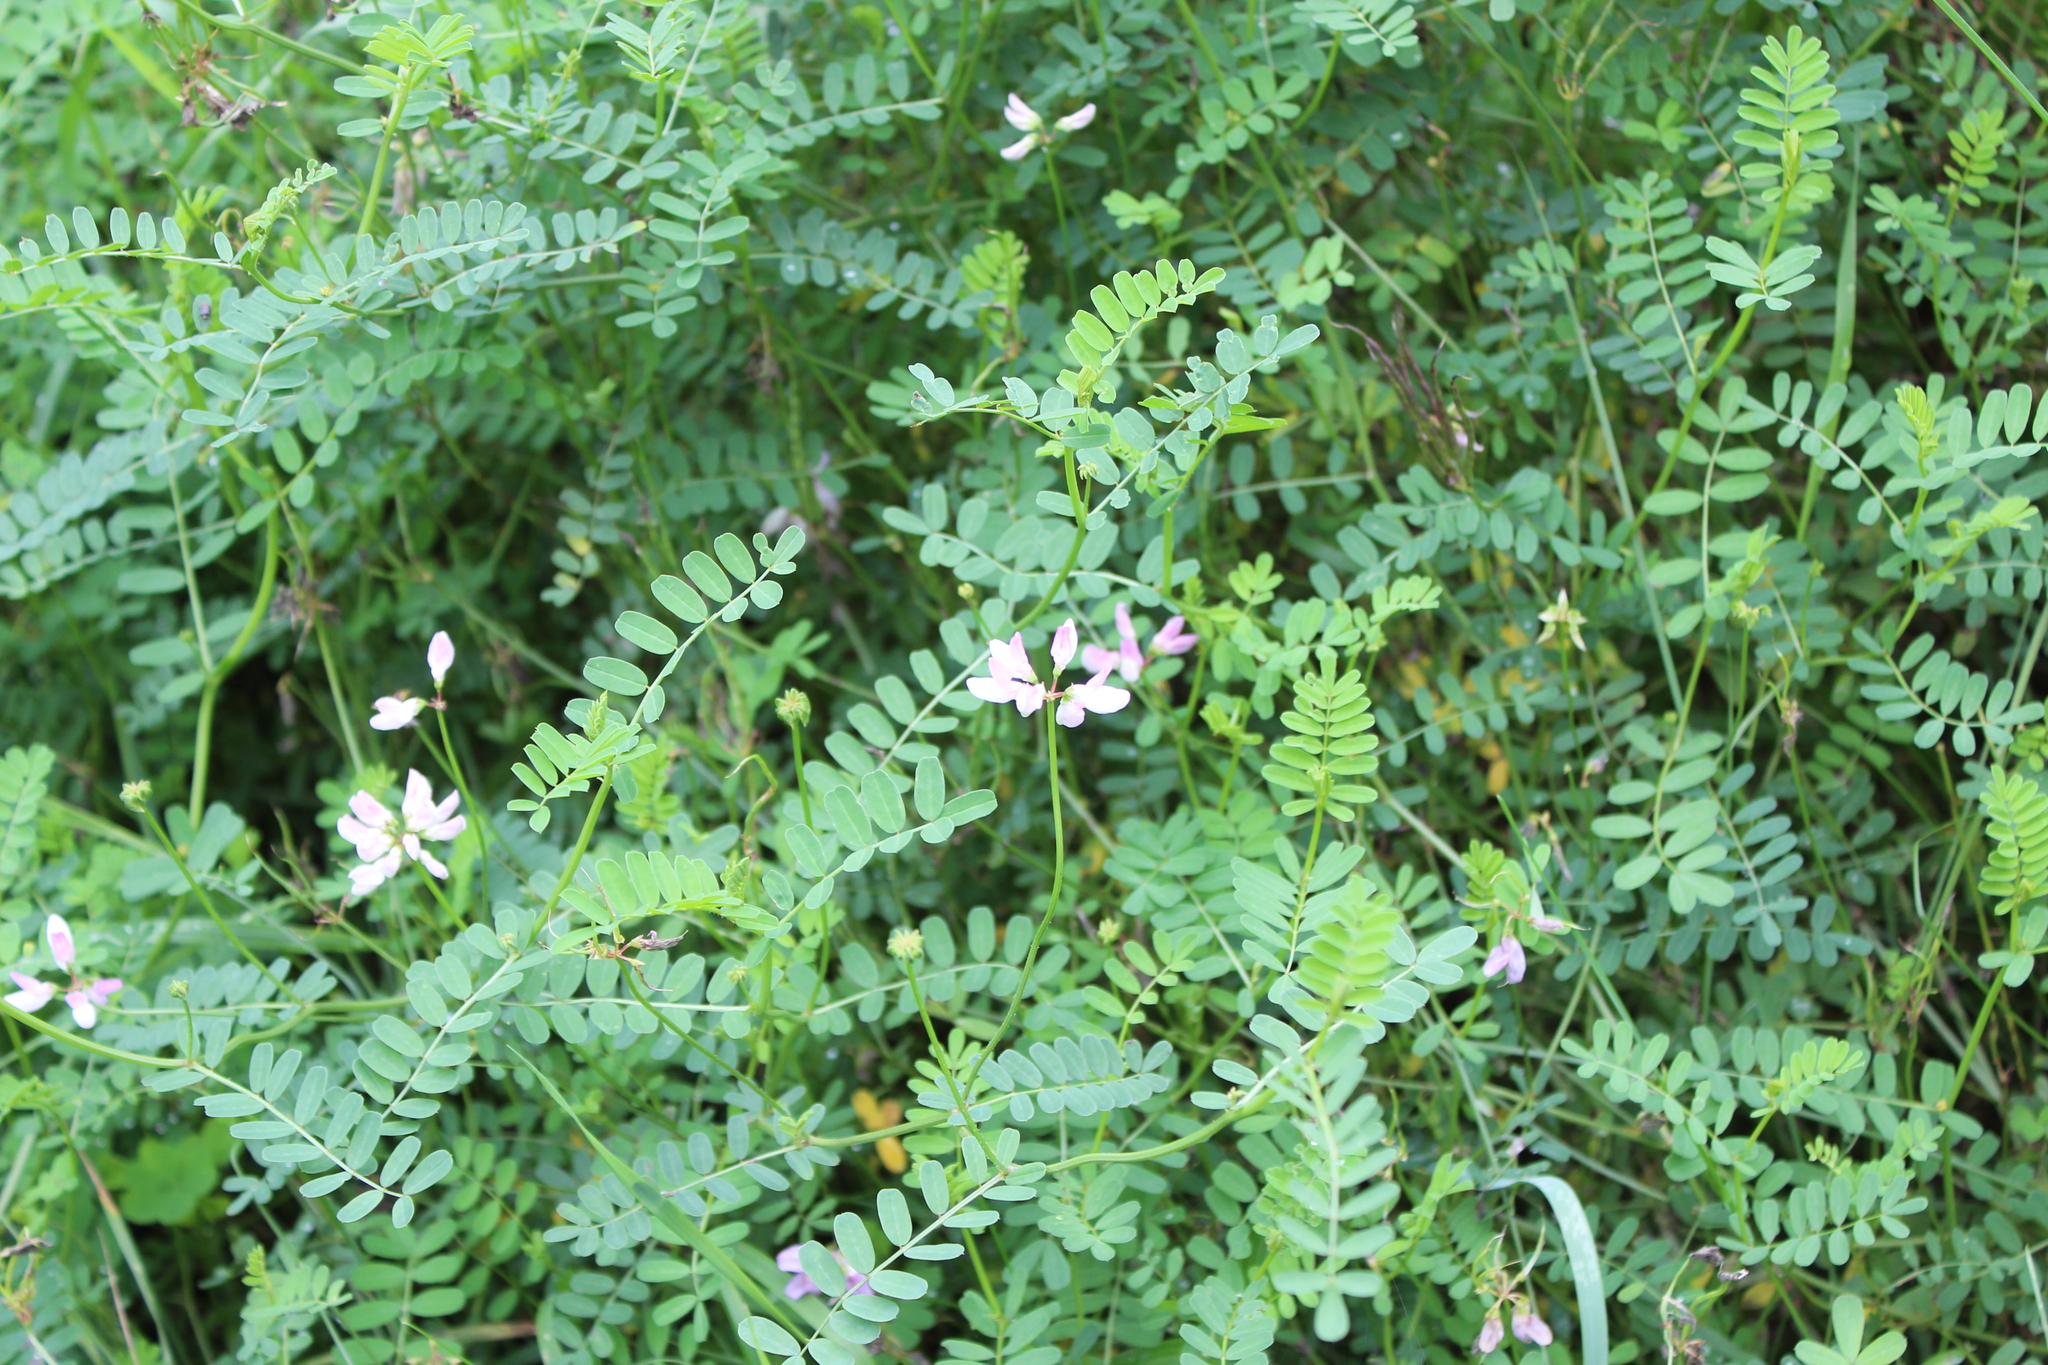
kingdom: Plantae
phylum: Tracheophyta
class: Magnoliopsida
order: Fabales
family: Fabaceae
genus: Coronilla
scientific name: Coronilla varia
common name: Crownvetch
